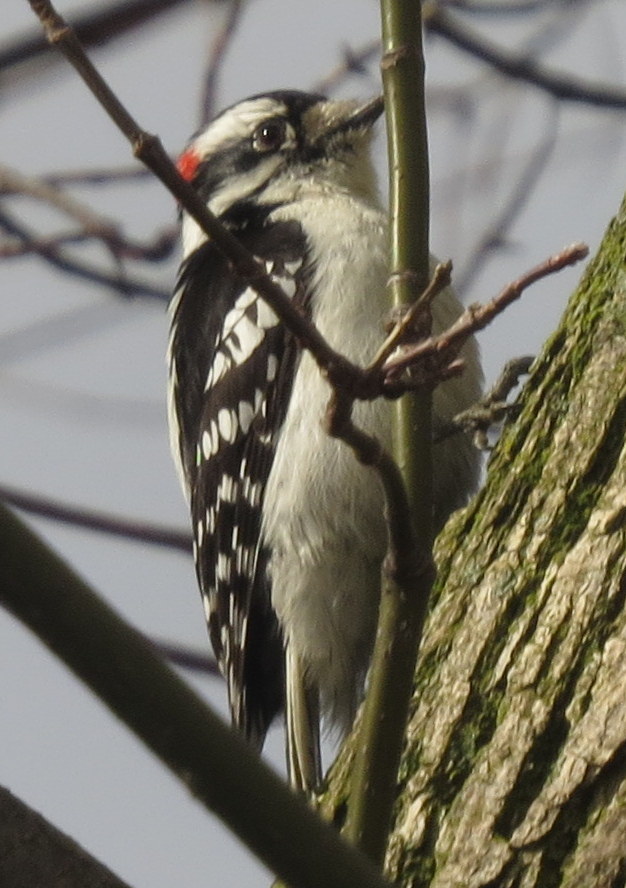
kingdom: Animalia
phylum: Chordata
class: Aves
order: Piciformes
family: Picidae
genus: Dryobates
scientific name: Dryobates pubescens
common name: Downy woodpecker
